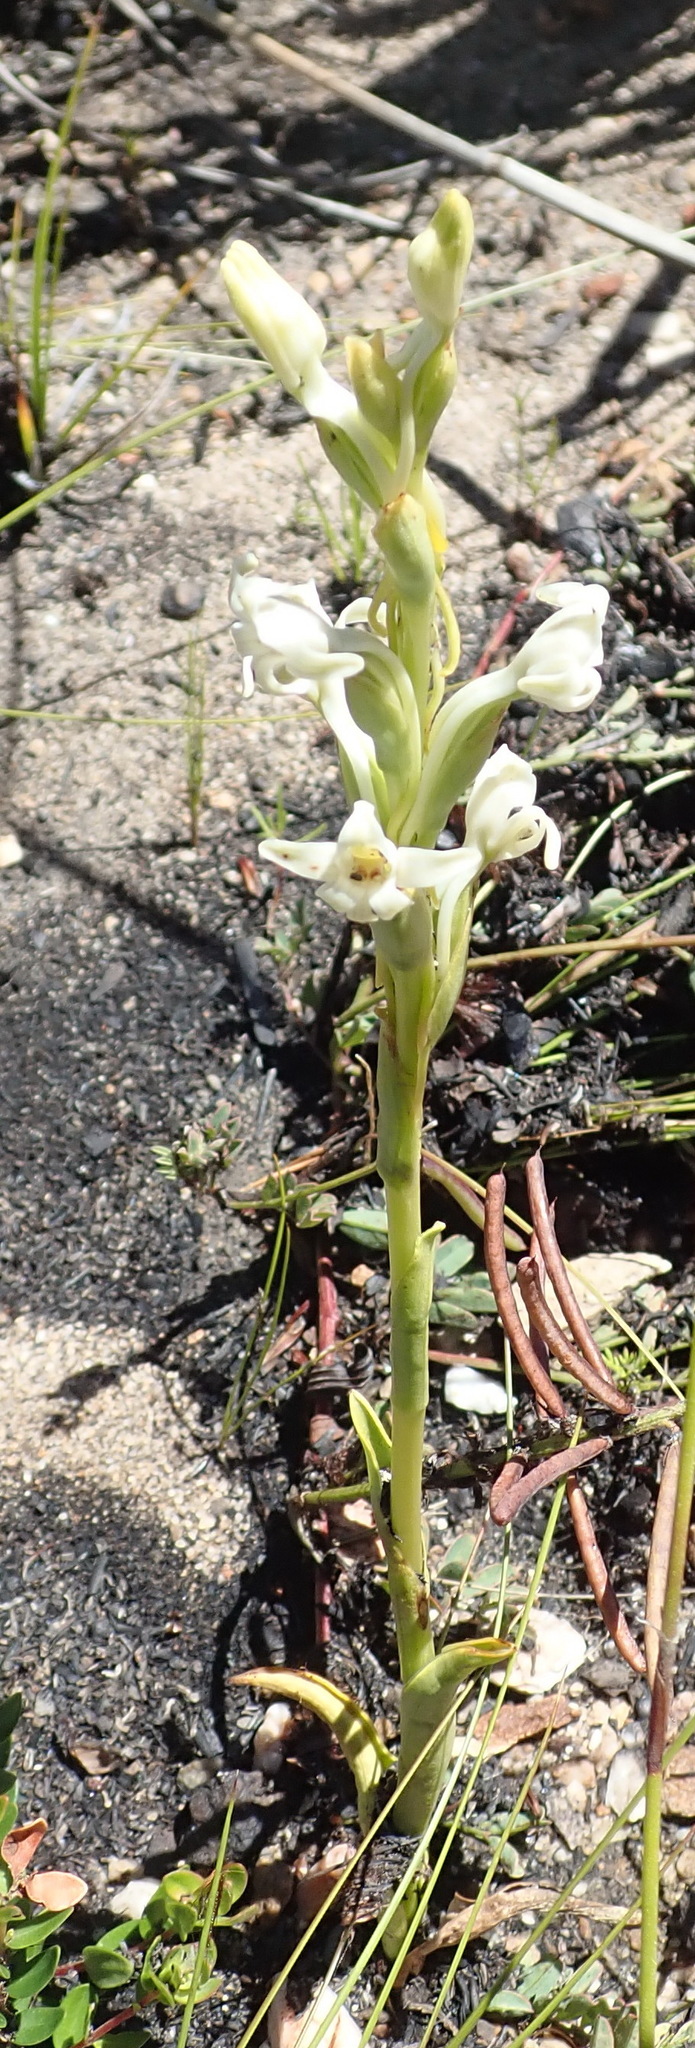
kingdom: Plantae
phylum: Tracheophyta
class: Liliopsida
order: Asparagales
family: Orchidaceae
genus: Satyrium
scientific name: Satyrium stenopetalum
